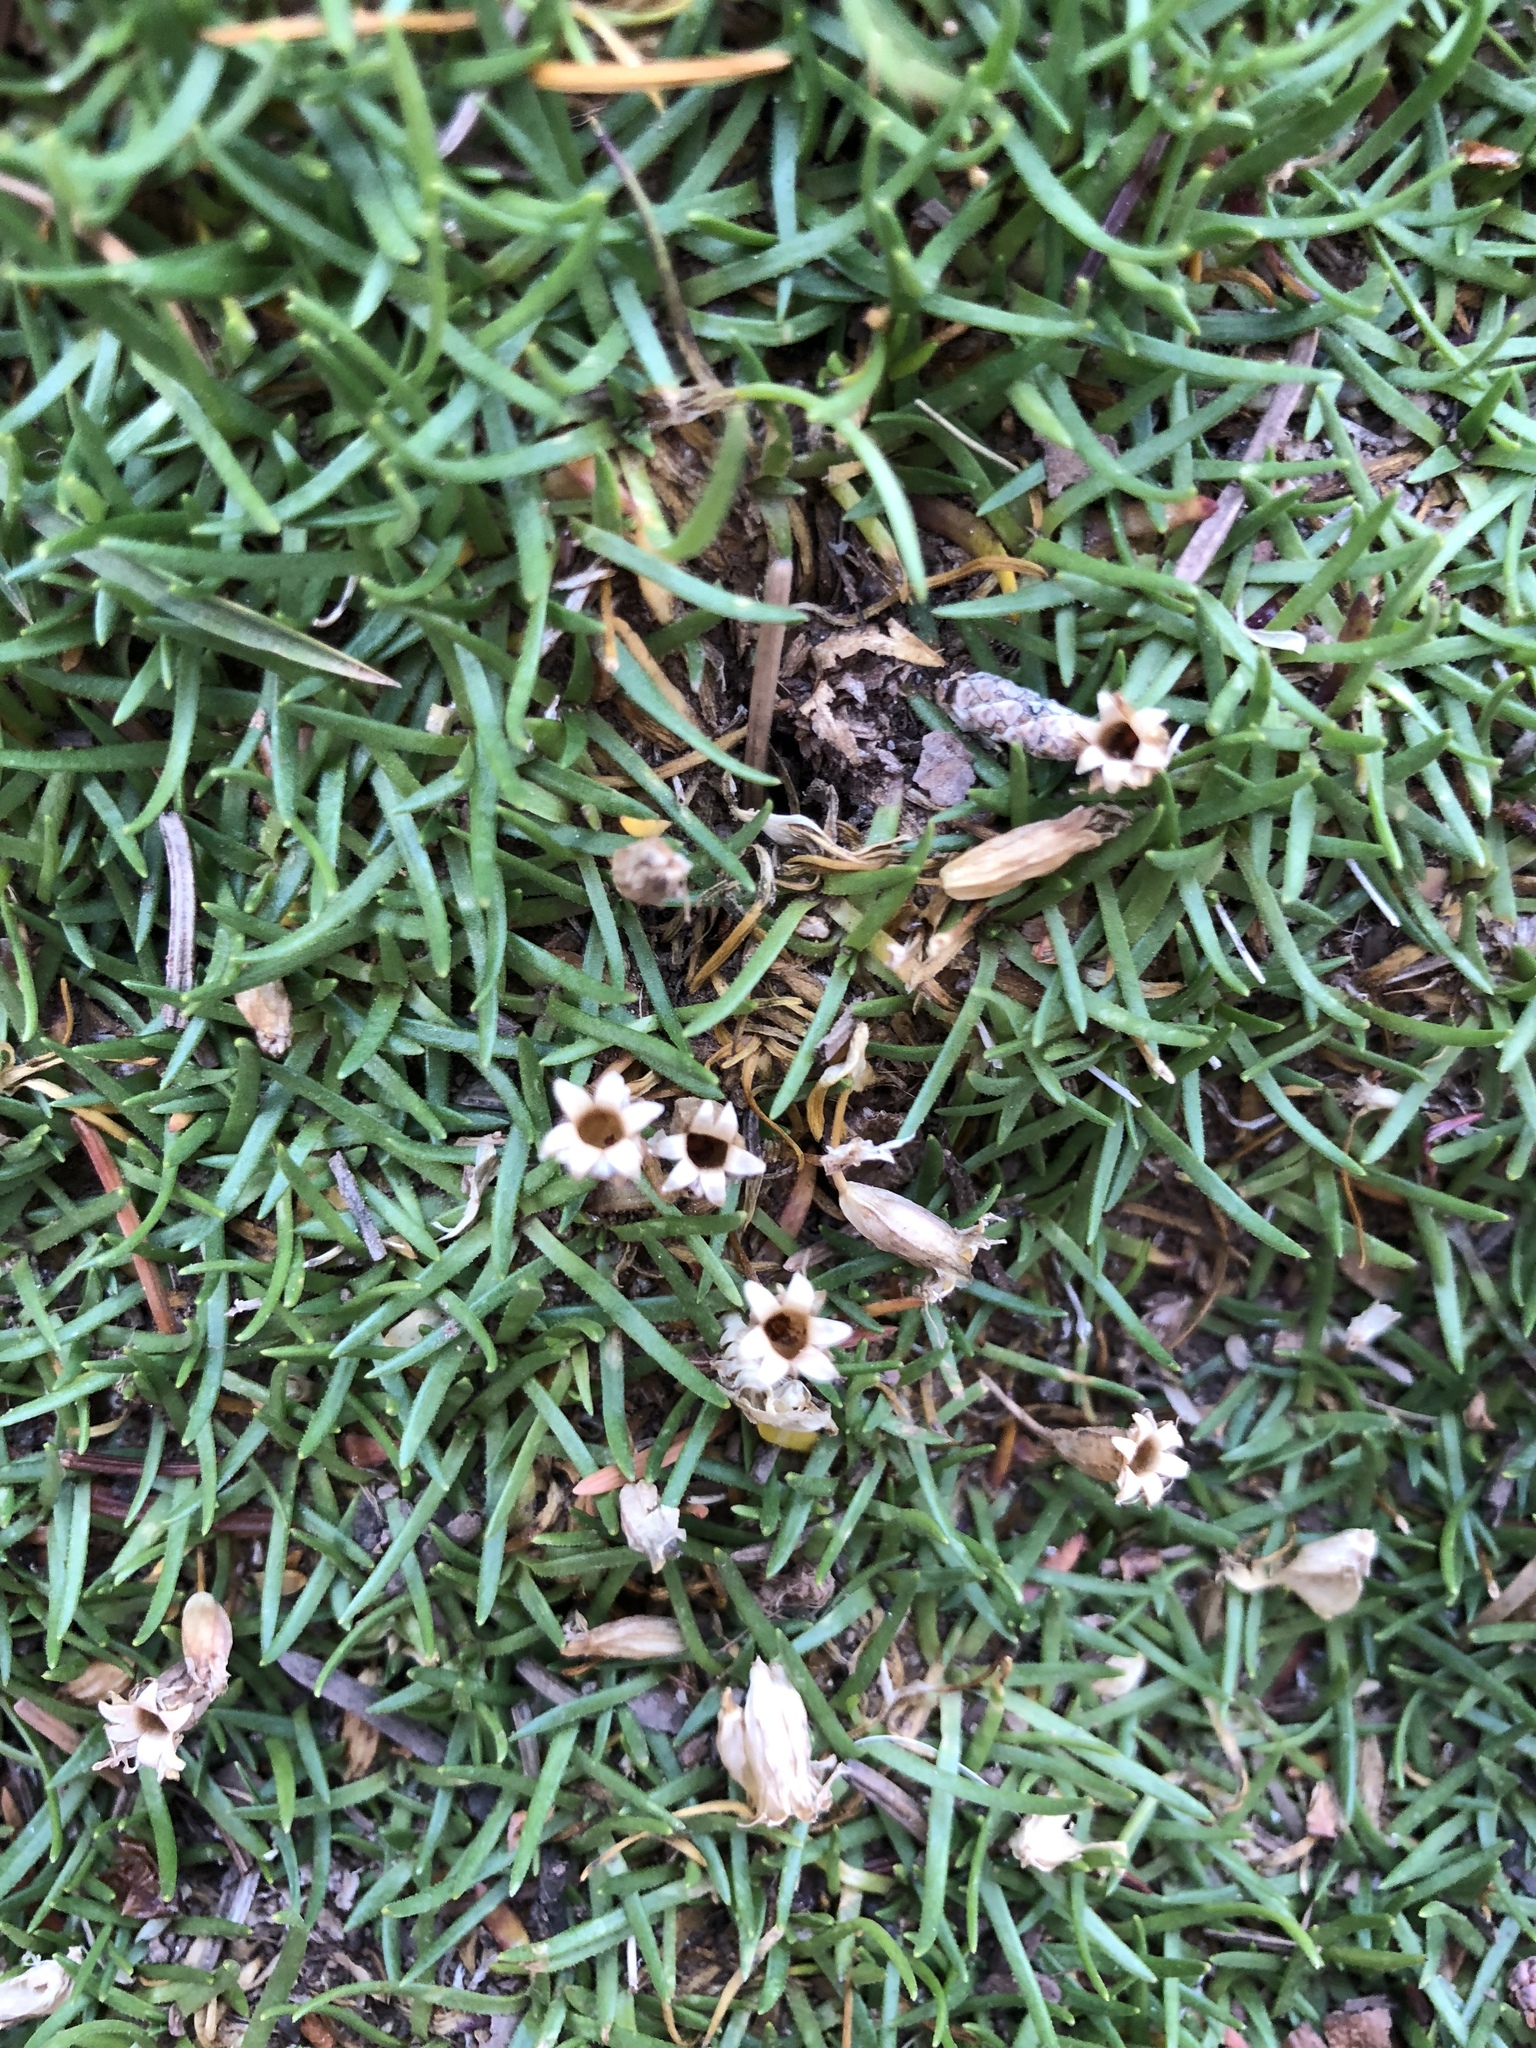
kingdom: Plantae
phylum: Tracheophyta
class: Magnoliopsida
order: Caryophyllales
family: Caryophyllaceae
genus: Silene
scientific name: Silene acaulis
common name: Moss campion
